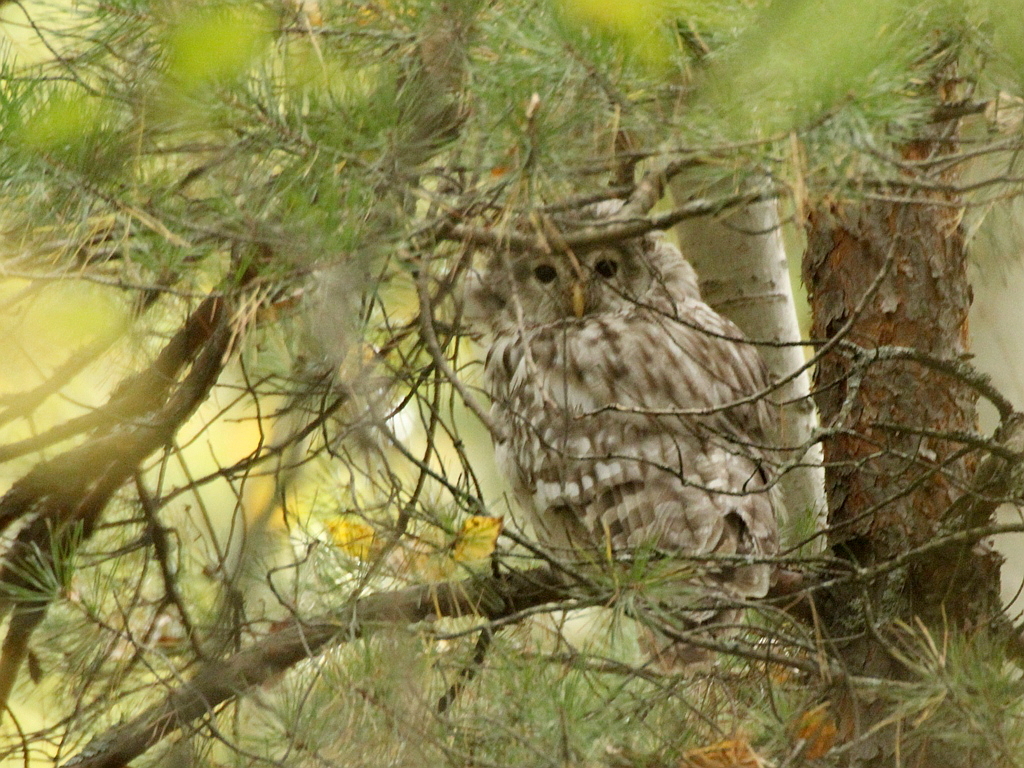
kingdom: Animalia
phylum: Chordata
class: Aves
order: Strigiformes
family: Strigidae
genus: Strix
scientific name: Strix uralensis
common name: Ural owl
